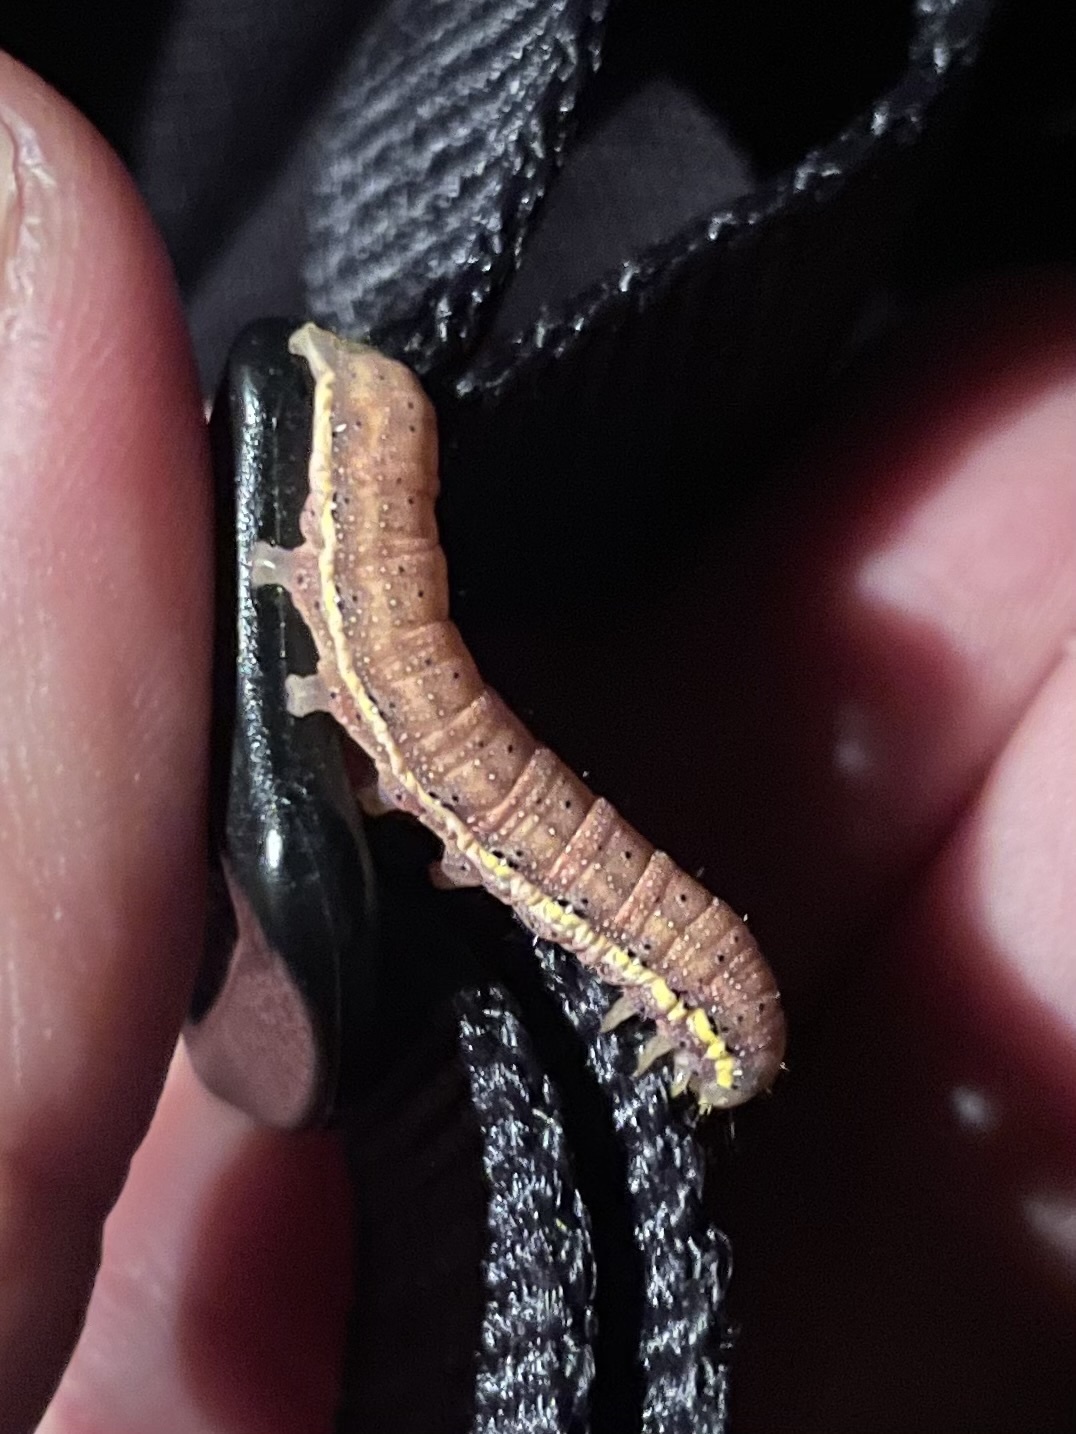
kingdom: Animalia
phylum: Arthropoda
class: Insecta
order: Lepidoptera
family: Noctuidae
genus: Lacanobia
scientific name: Lacanobia oleracea
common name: Bright-line brown-eye
